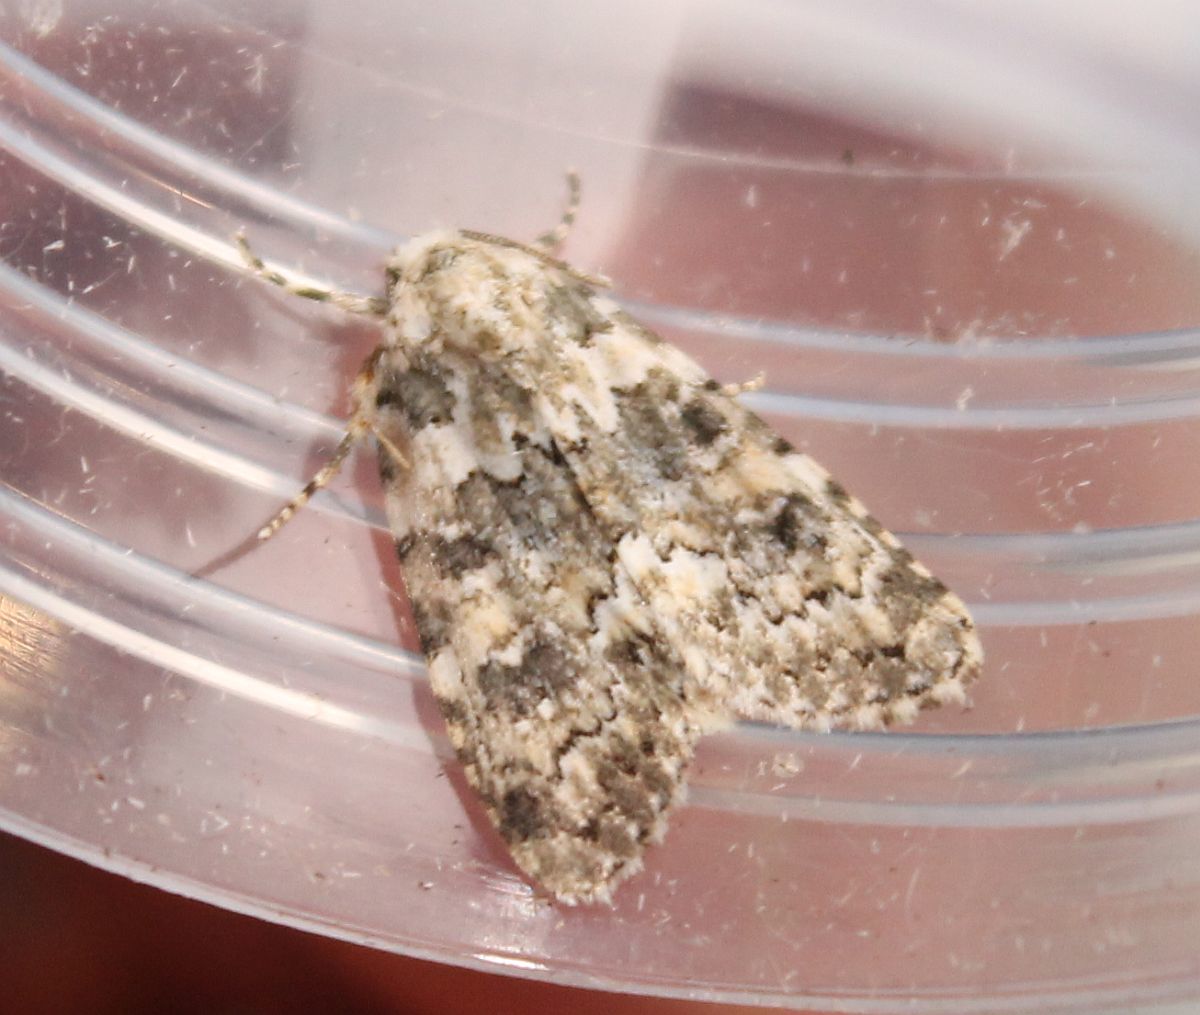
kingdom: Animalia
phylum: Arthropoda
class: Insecta
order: Lepidoptera
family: Noctuidae
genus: Bryophila
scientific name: Bryophila domestica
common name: Marbled beauty
